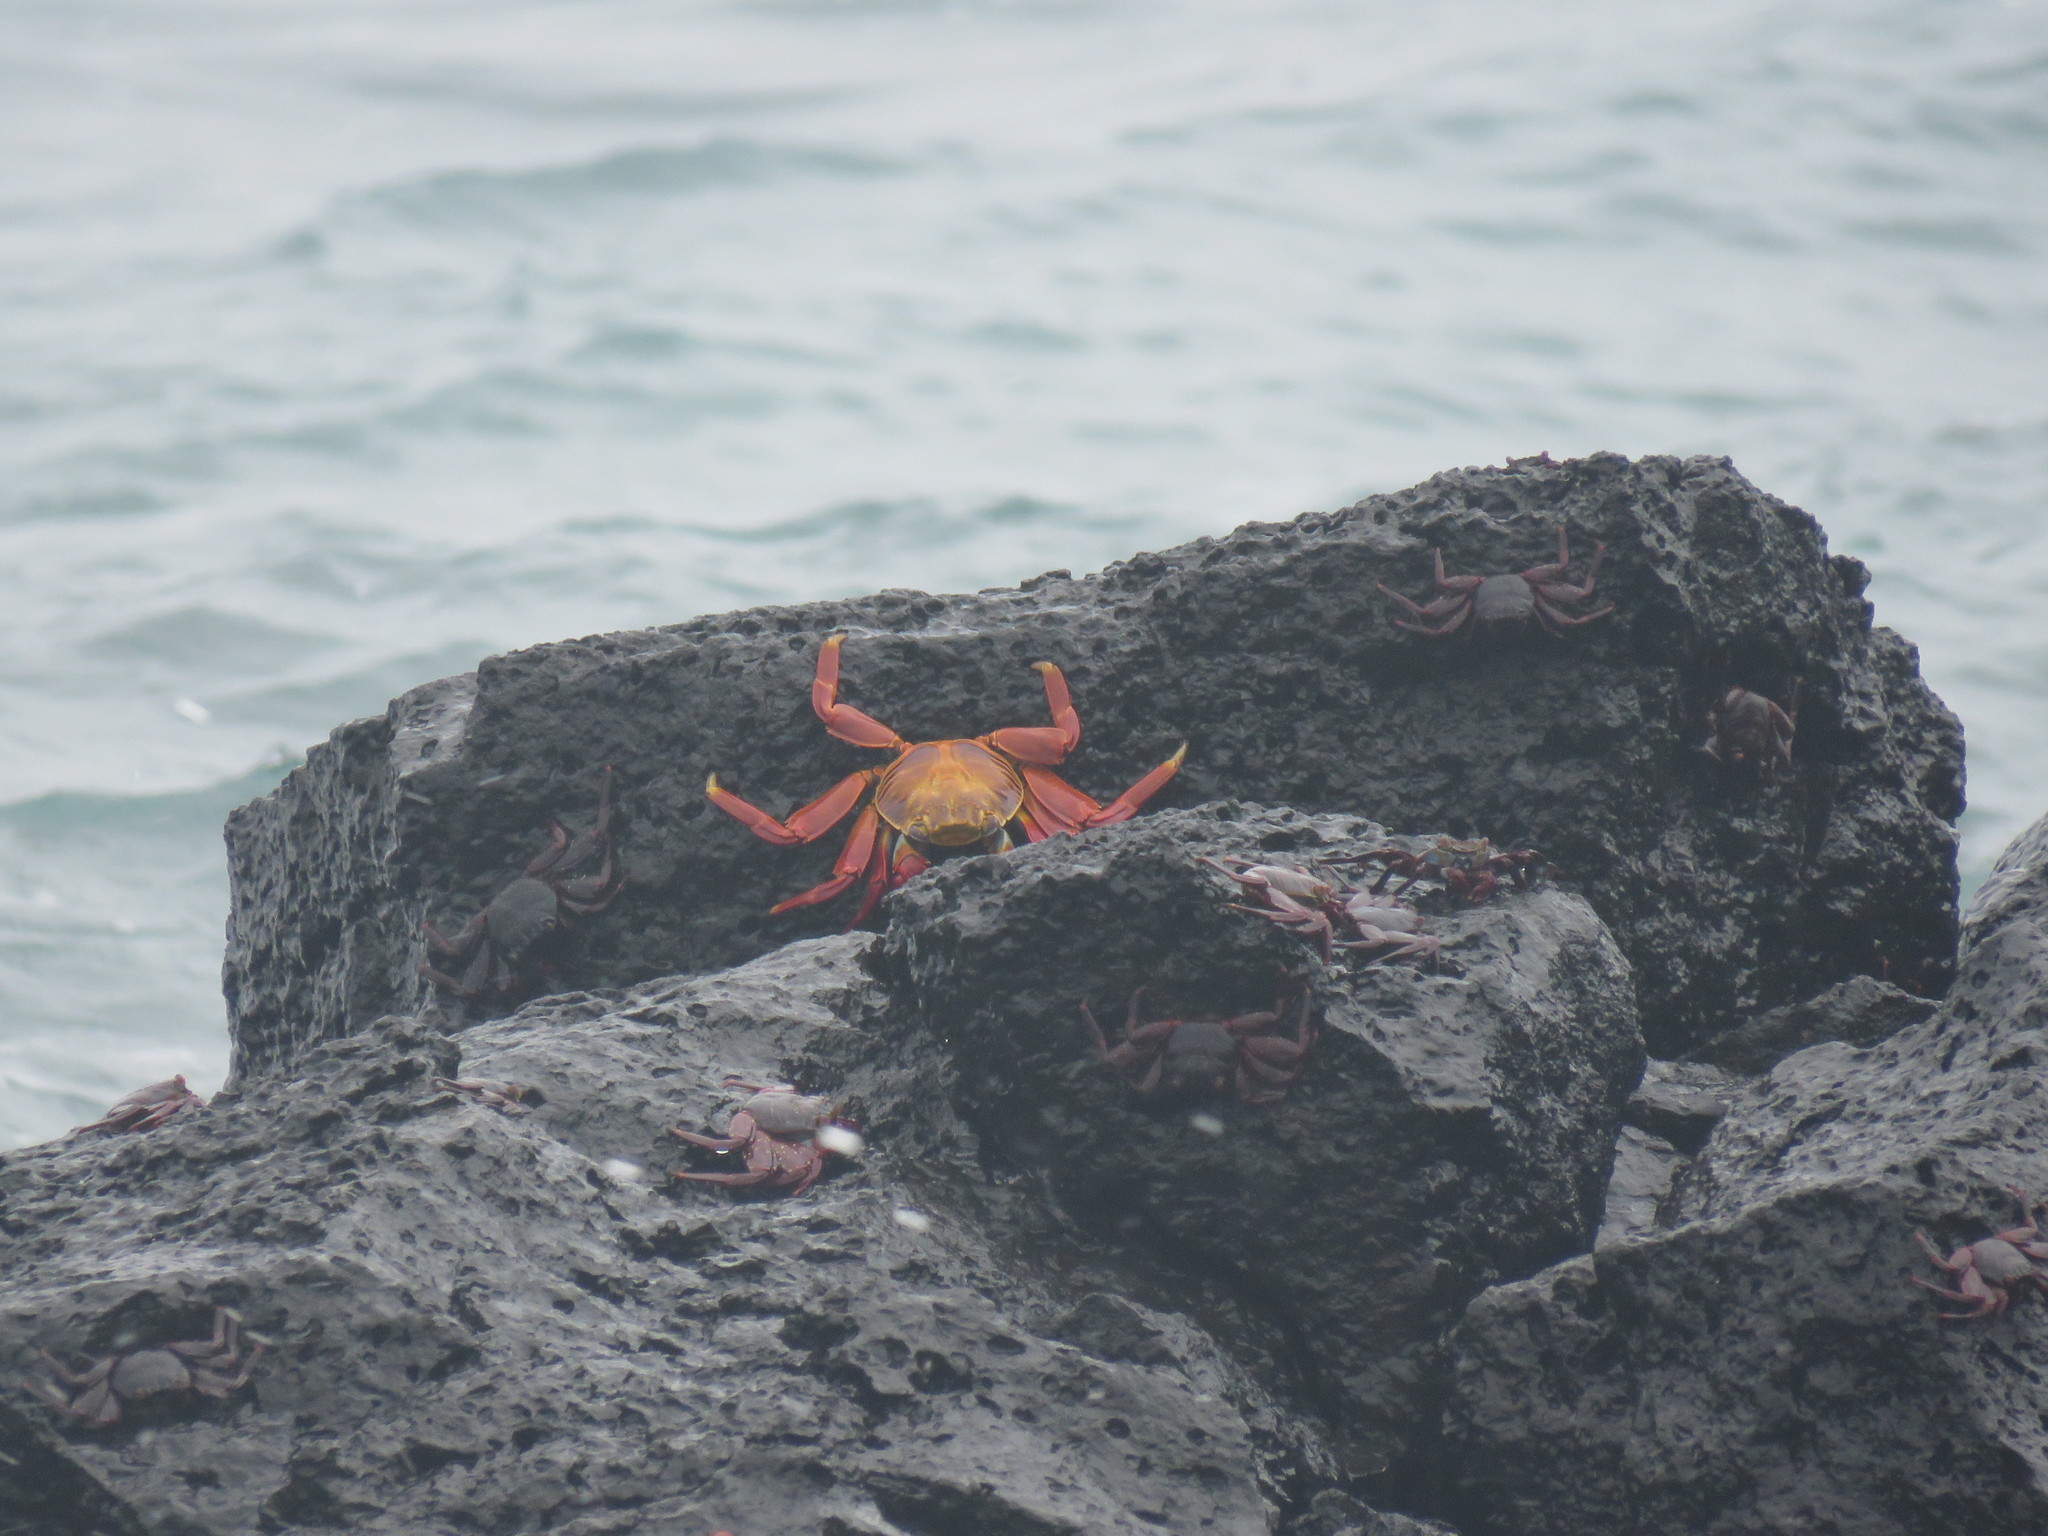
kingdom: Animalia
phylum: Arthropoda
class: Malacostraca
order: Decapoda
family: Grapsidae
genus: Grapsus
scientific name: Grapsus grapsus
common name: Sally lightfoot
